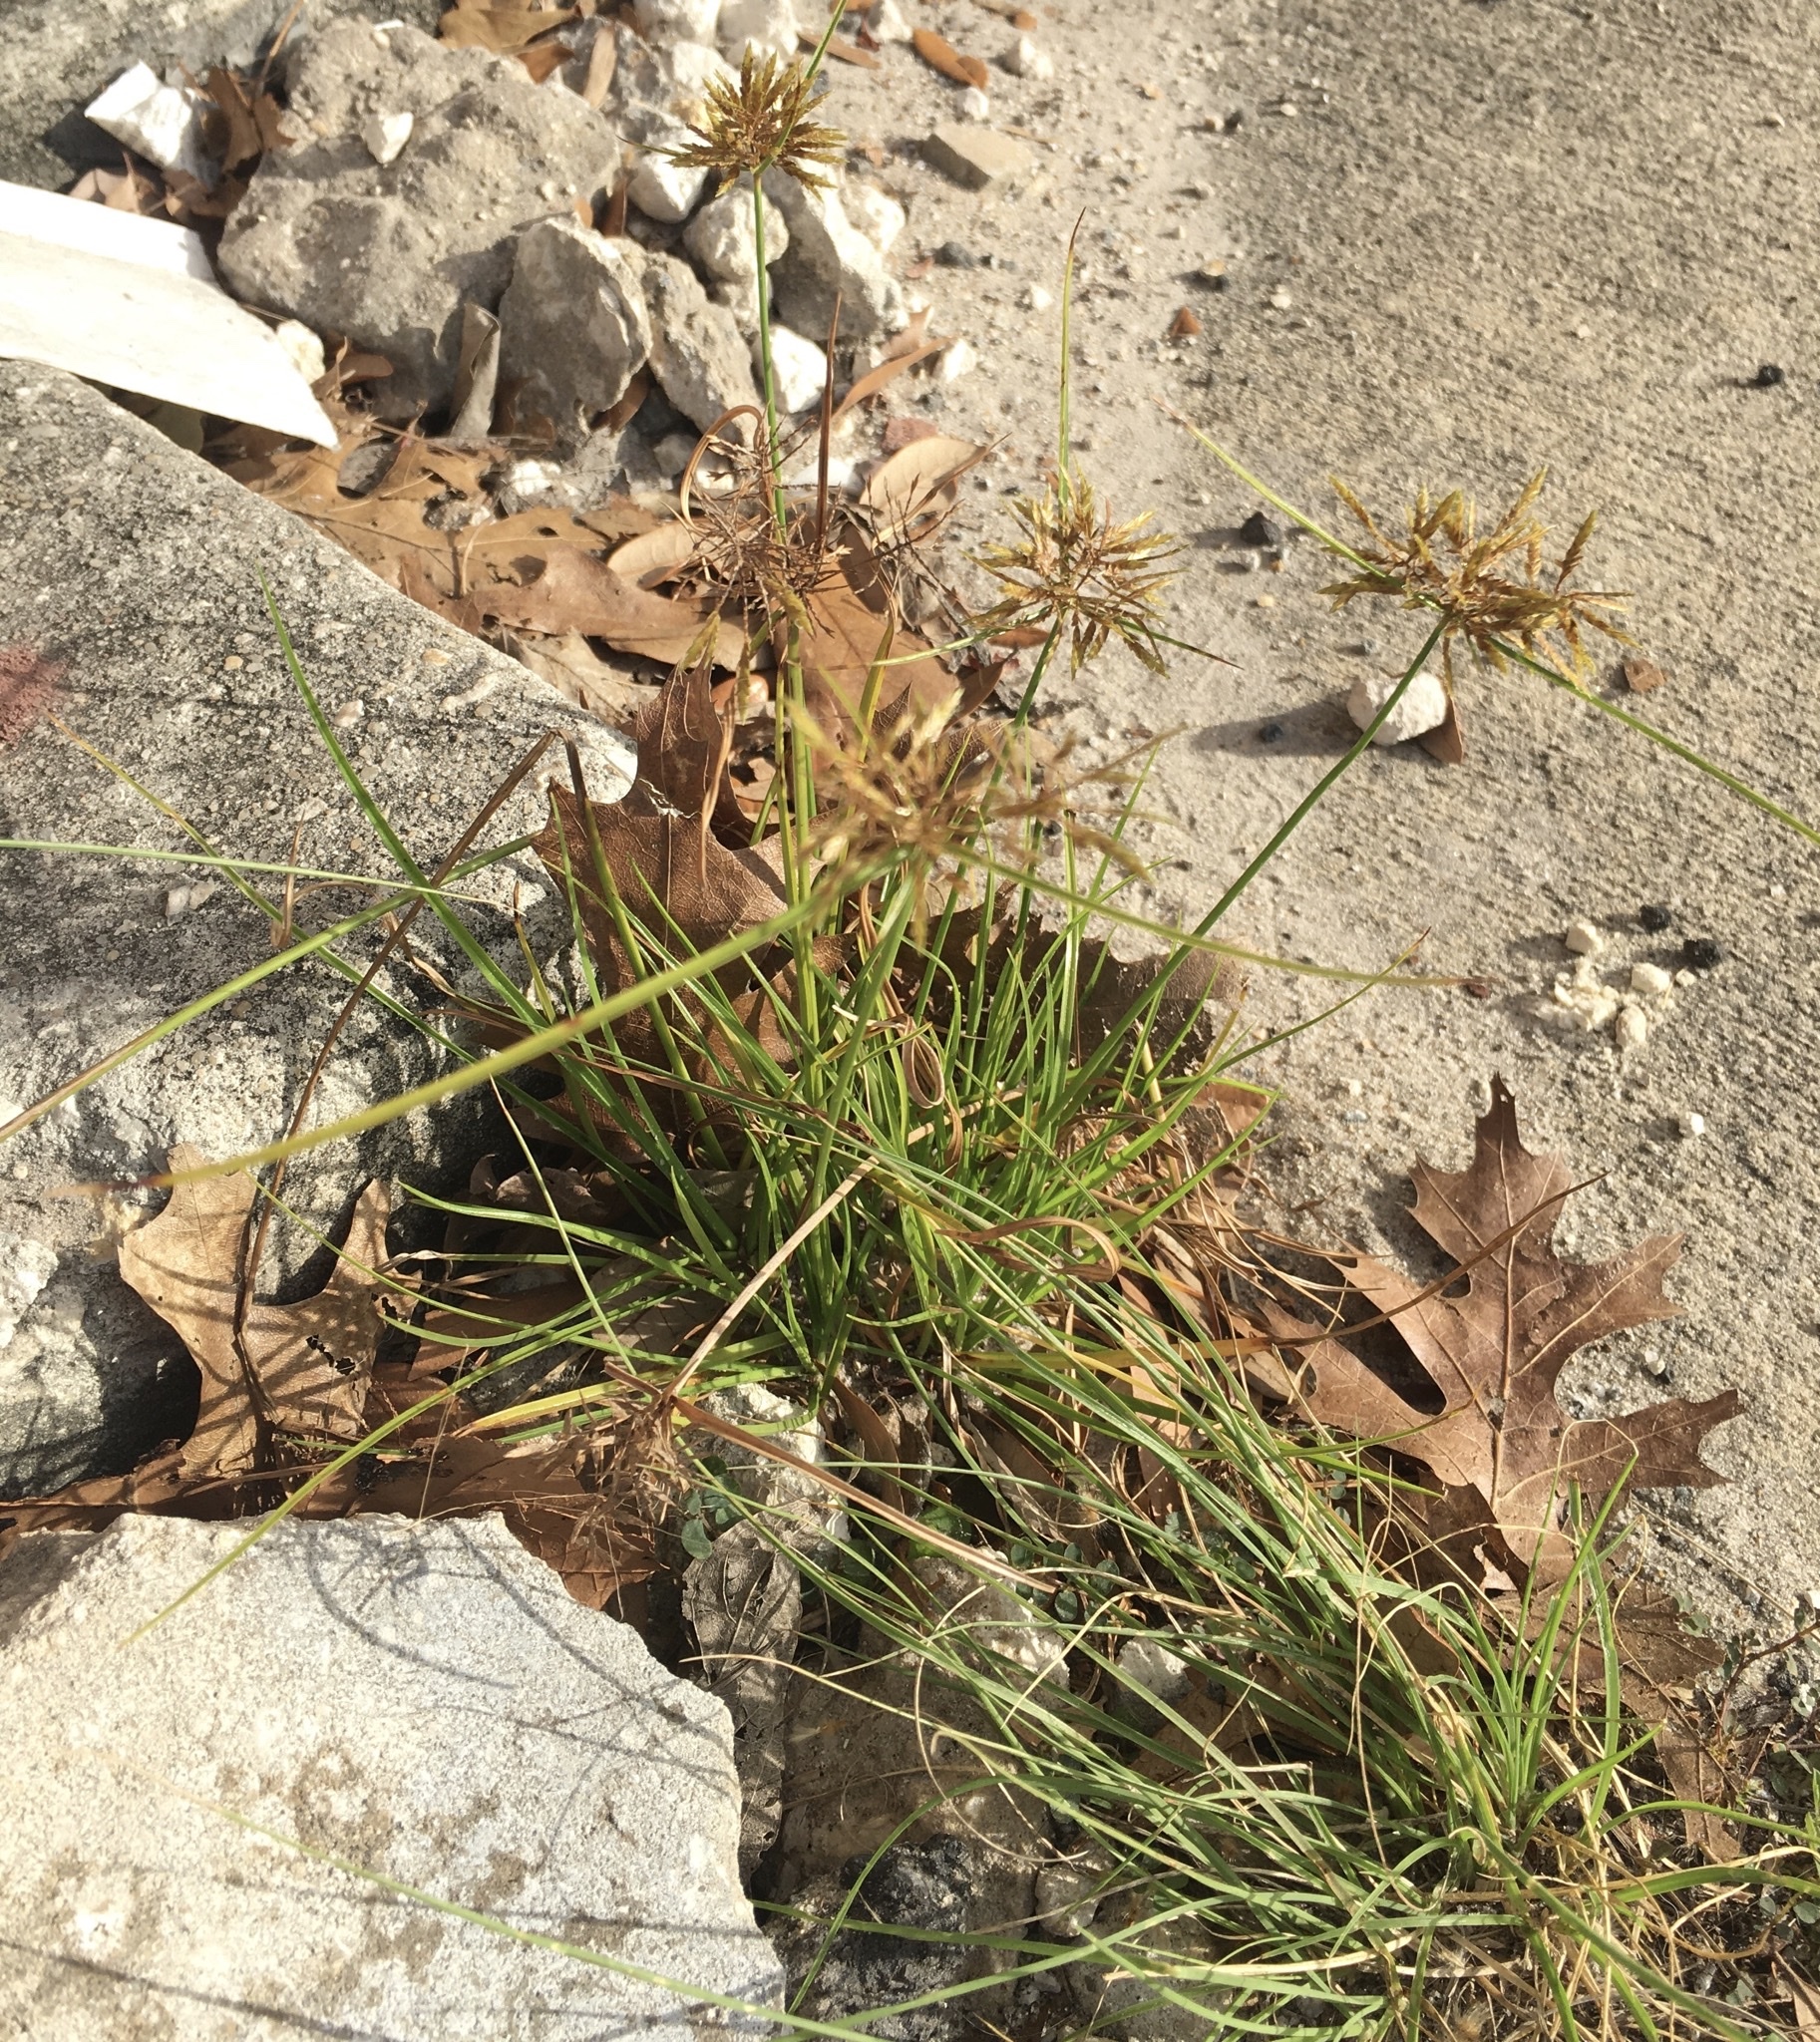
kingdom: Plantae
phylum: Tracheophyta
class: Liliopsida
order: Poales
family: Cyperaceae
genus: Cyperus
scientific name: Cyperus polystachyos
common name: Bunchy flat sedge
